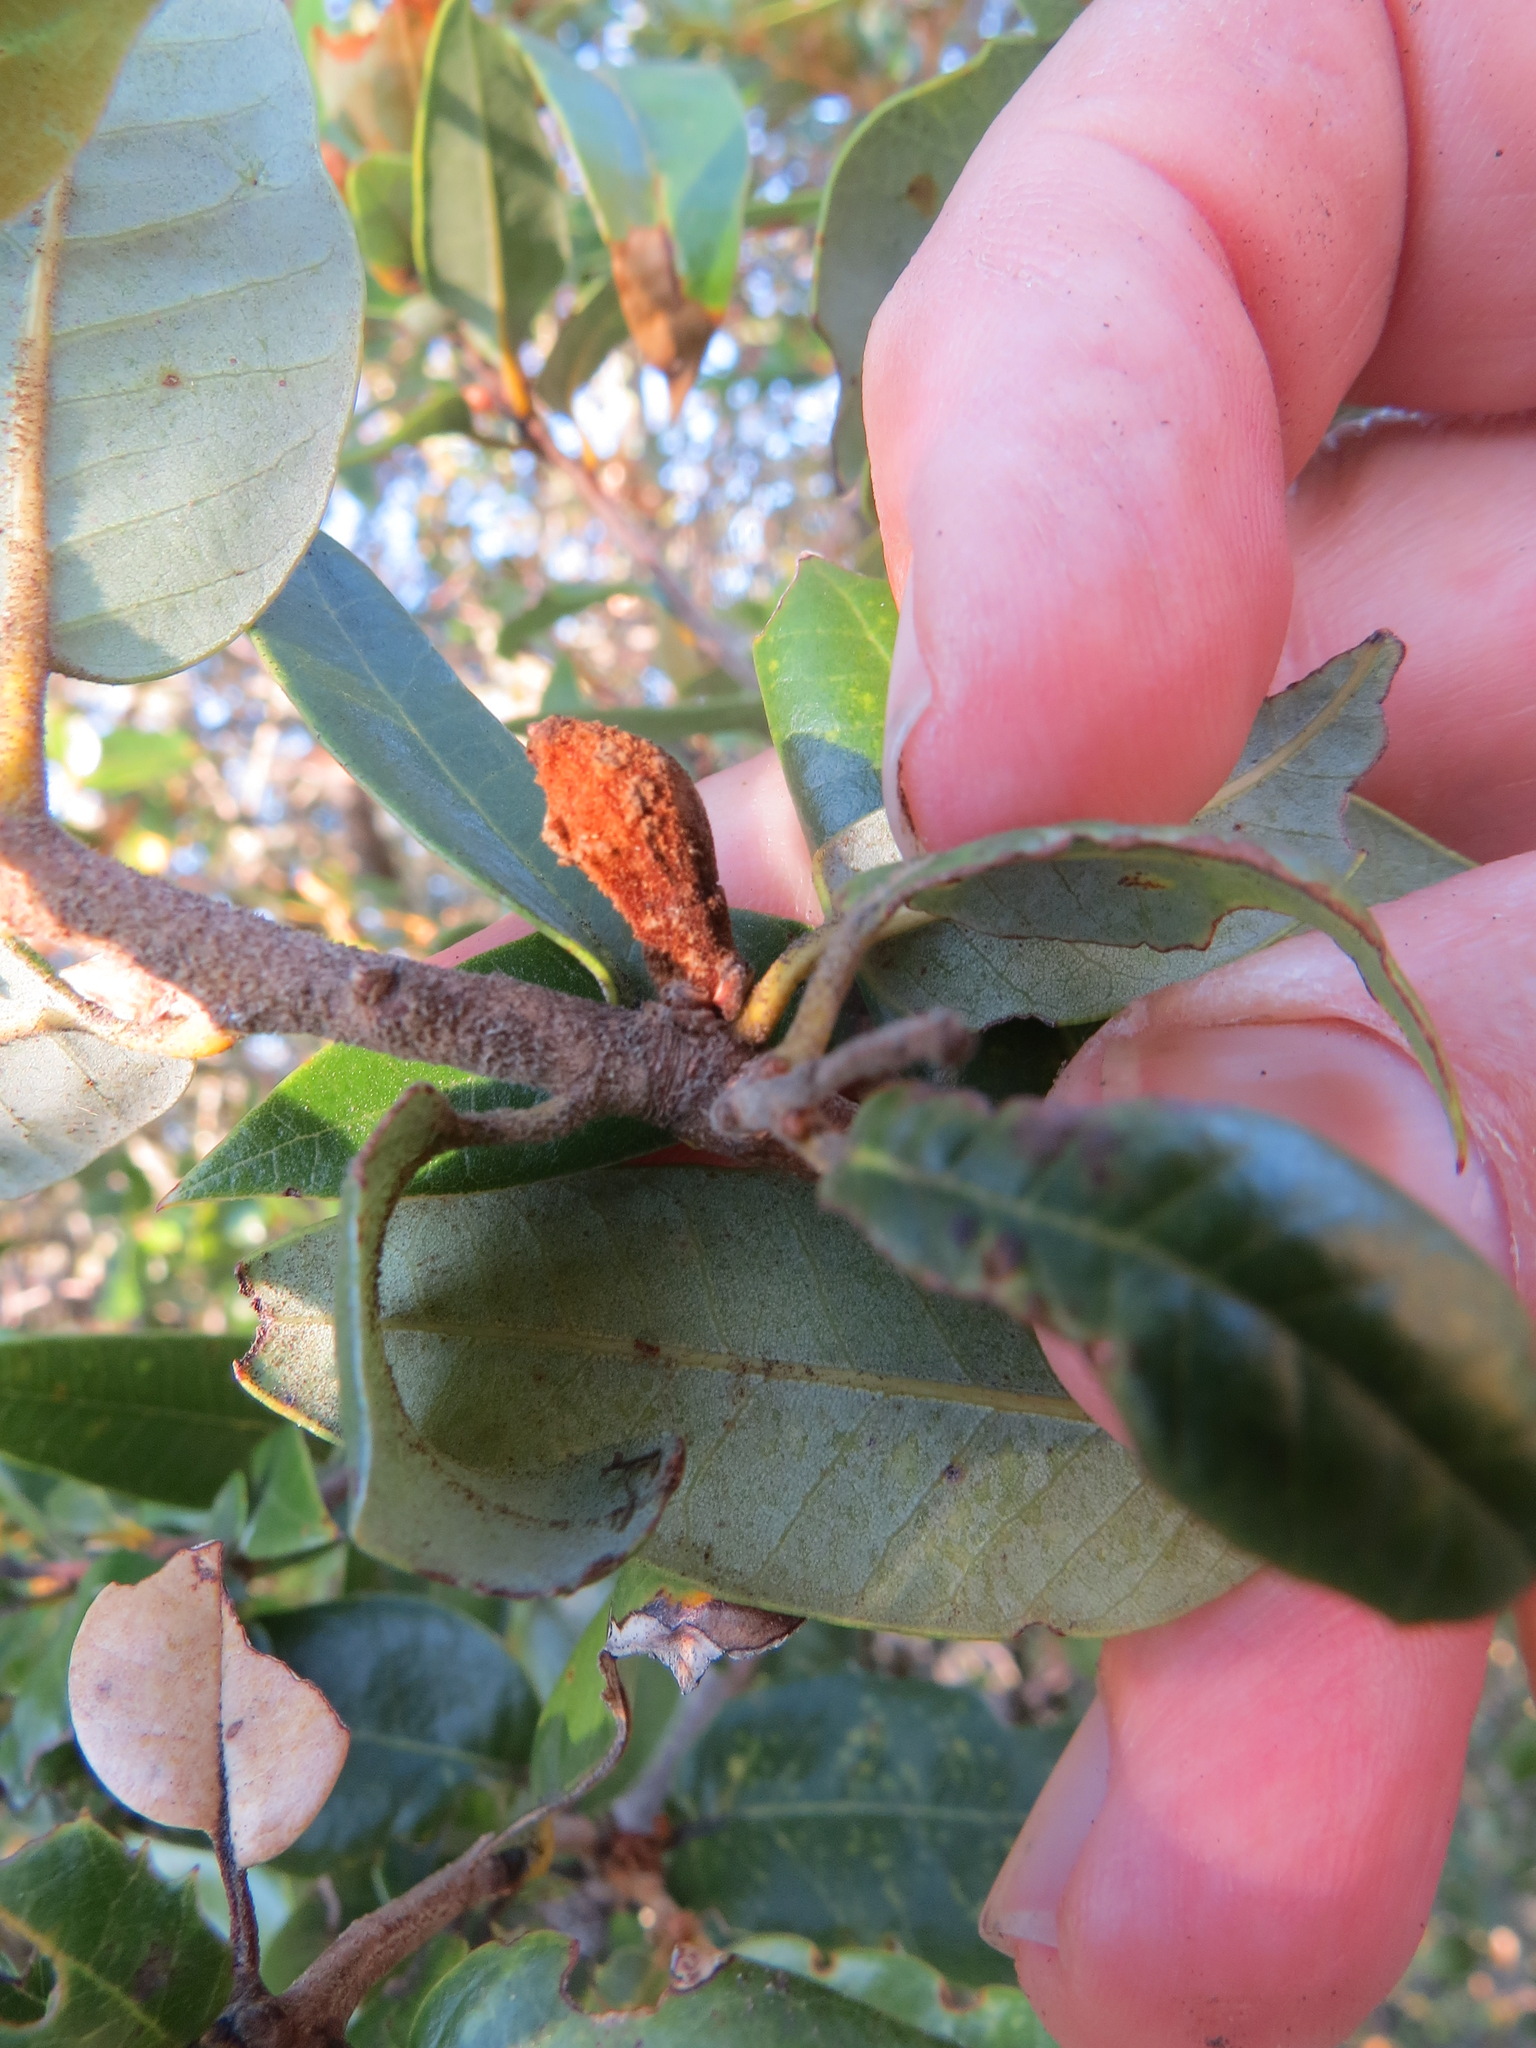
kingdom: Animalia
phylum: Arthropoda
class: Insecta
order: Hymenoptera
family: Cynipidae
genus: Heteroecus
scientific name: Heteroecus
